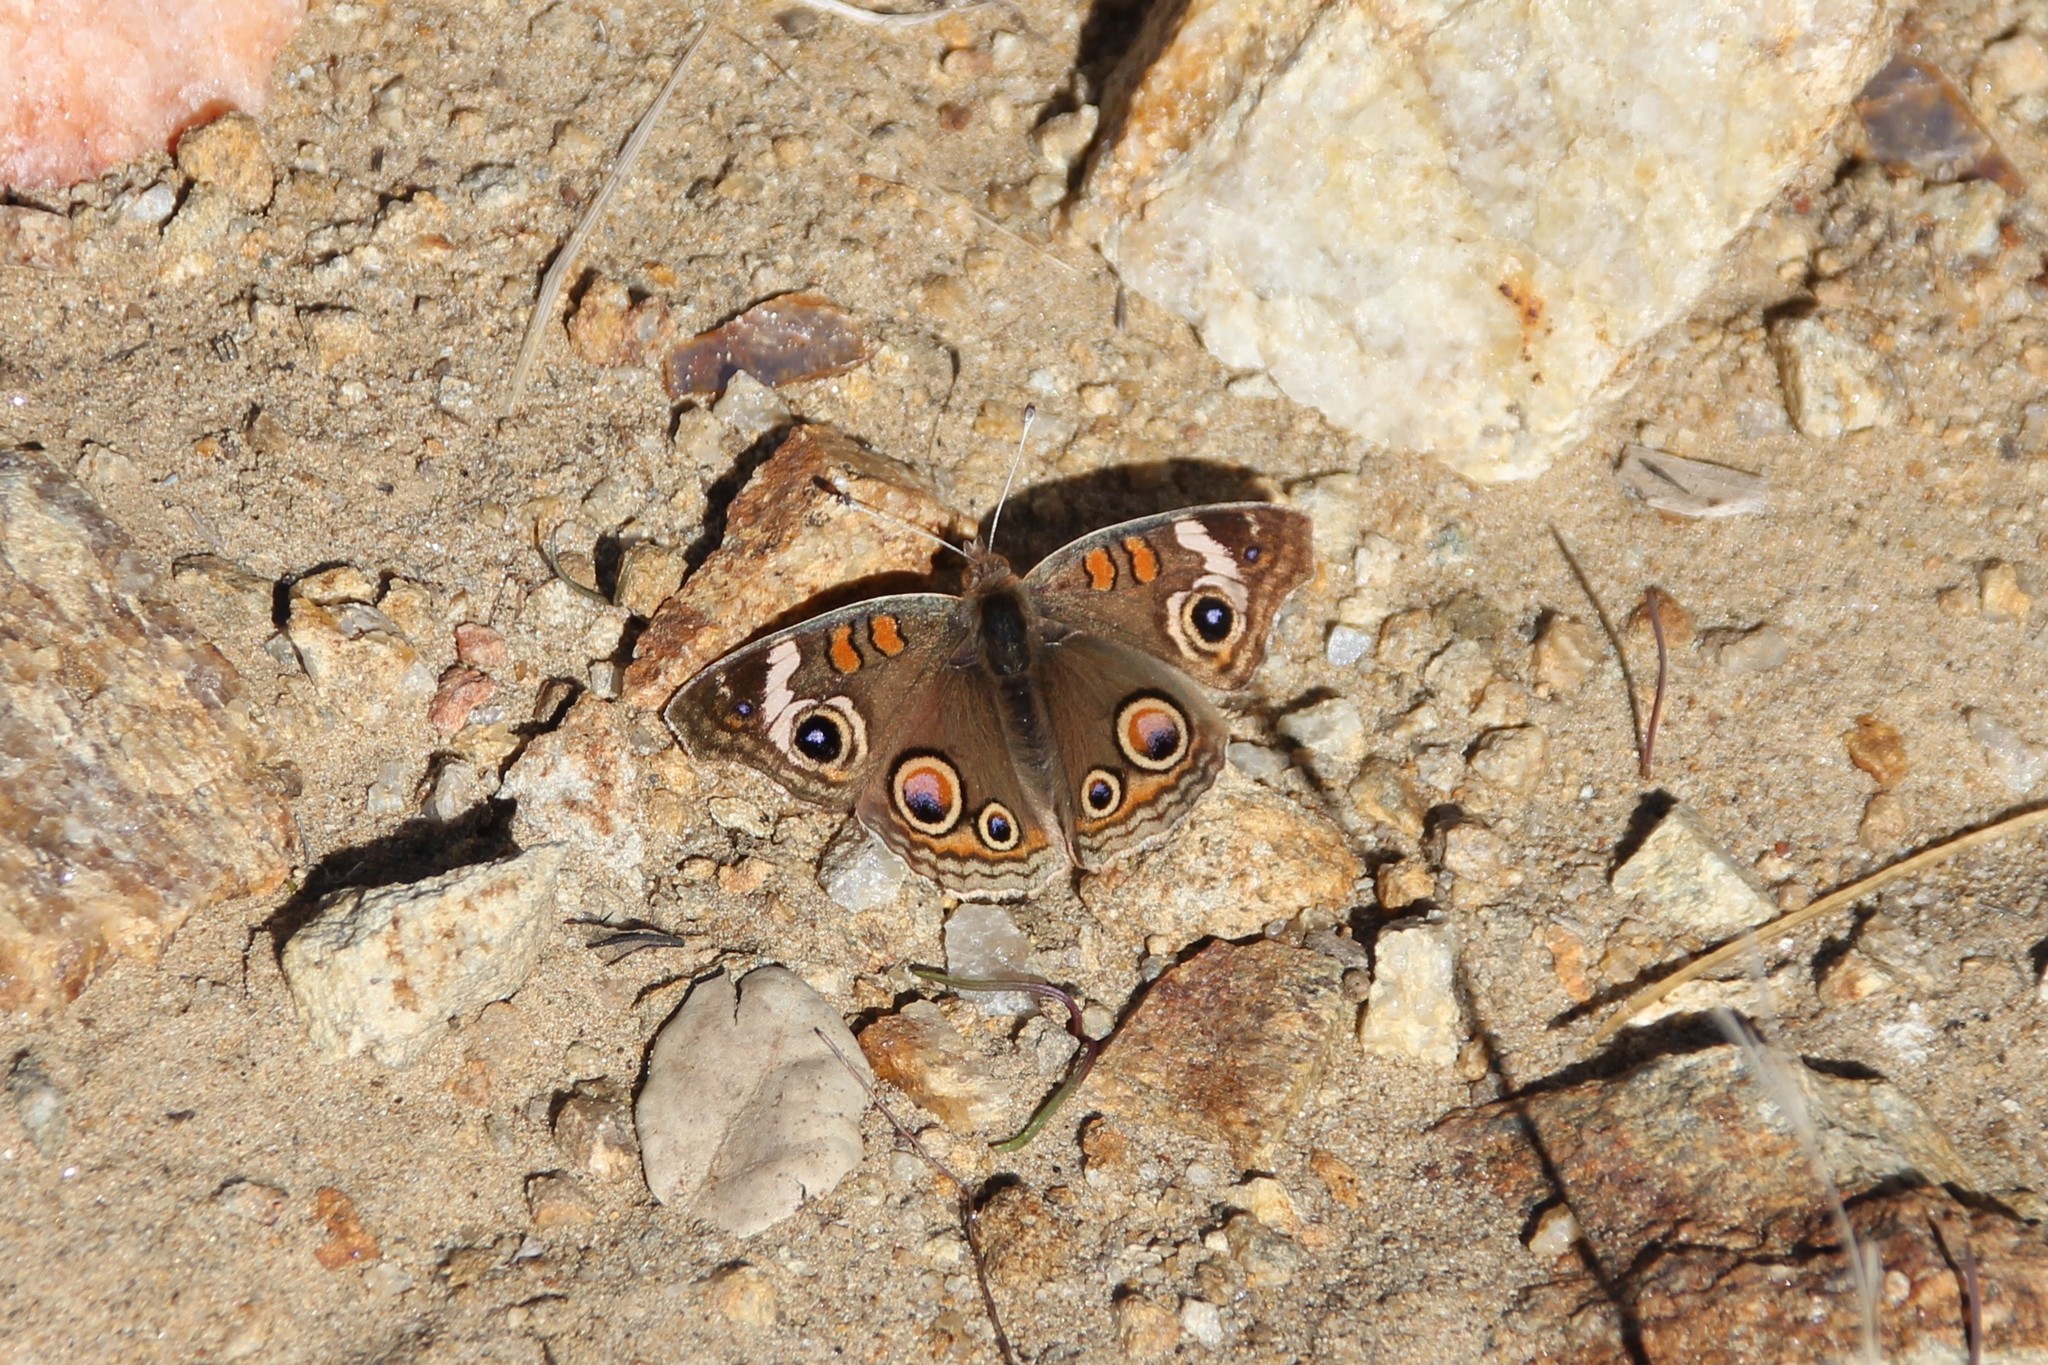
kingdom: Animalia
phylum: Arthropoda
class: Insecta
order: Lepidoptera
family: Nymphalidae
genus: Junonia
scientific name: Junonia grisea
